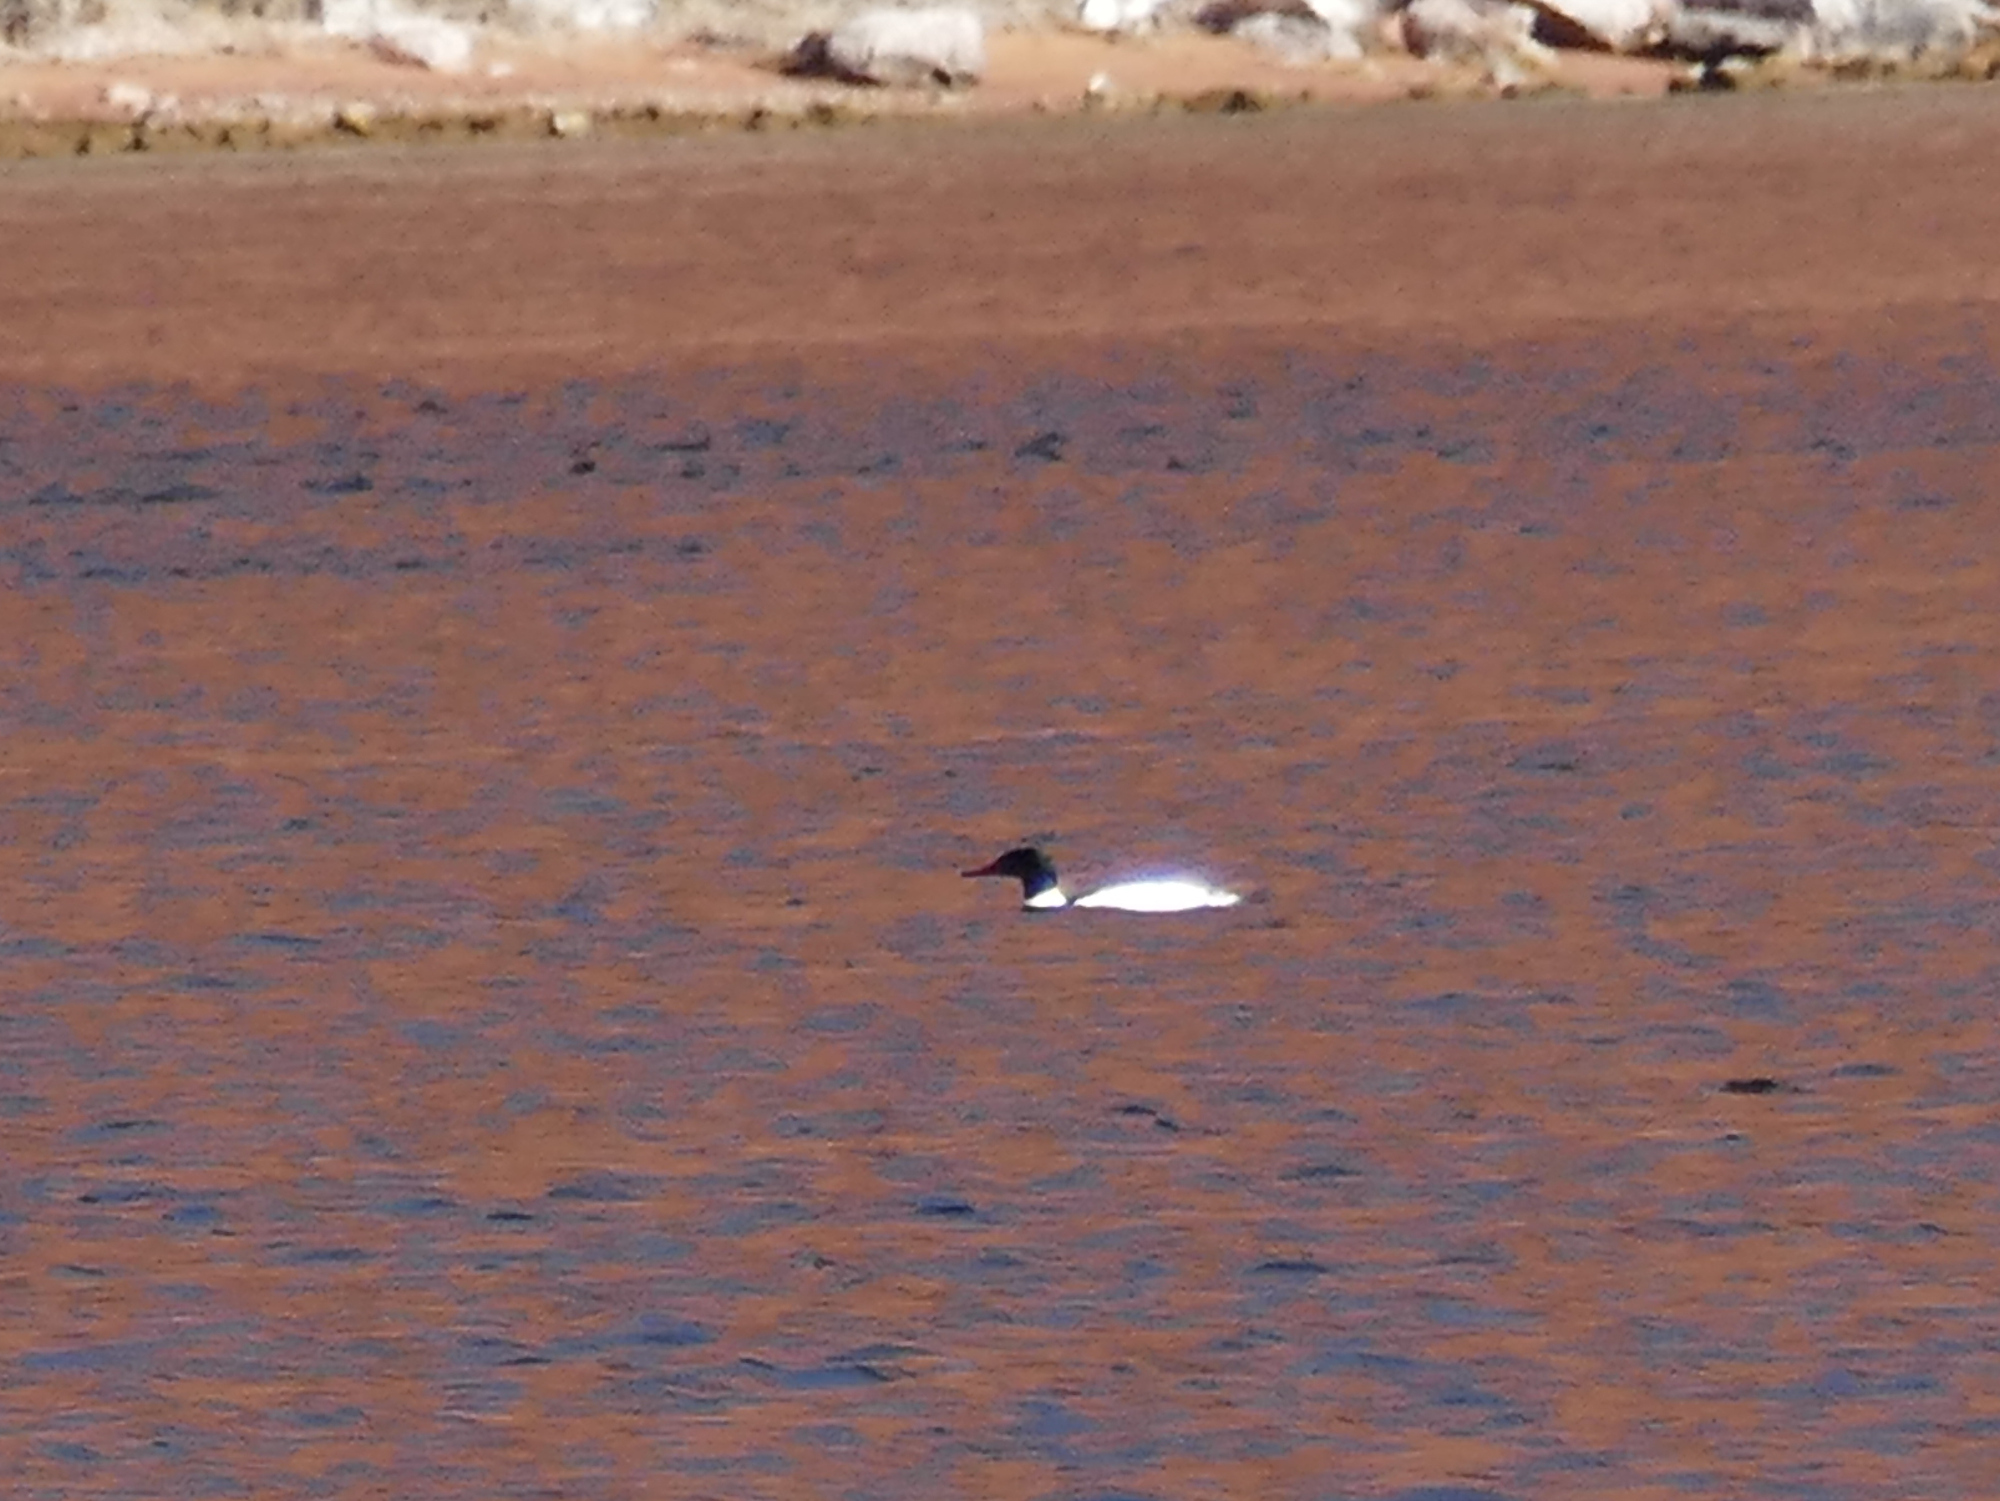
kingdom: Animalia
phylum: Chordata
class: Aves
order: Anseriformes
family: Anatidae
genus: Mergus
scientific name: Mergus merganser
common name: Common merganser
